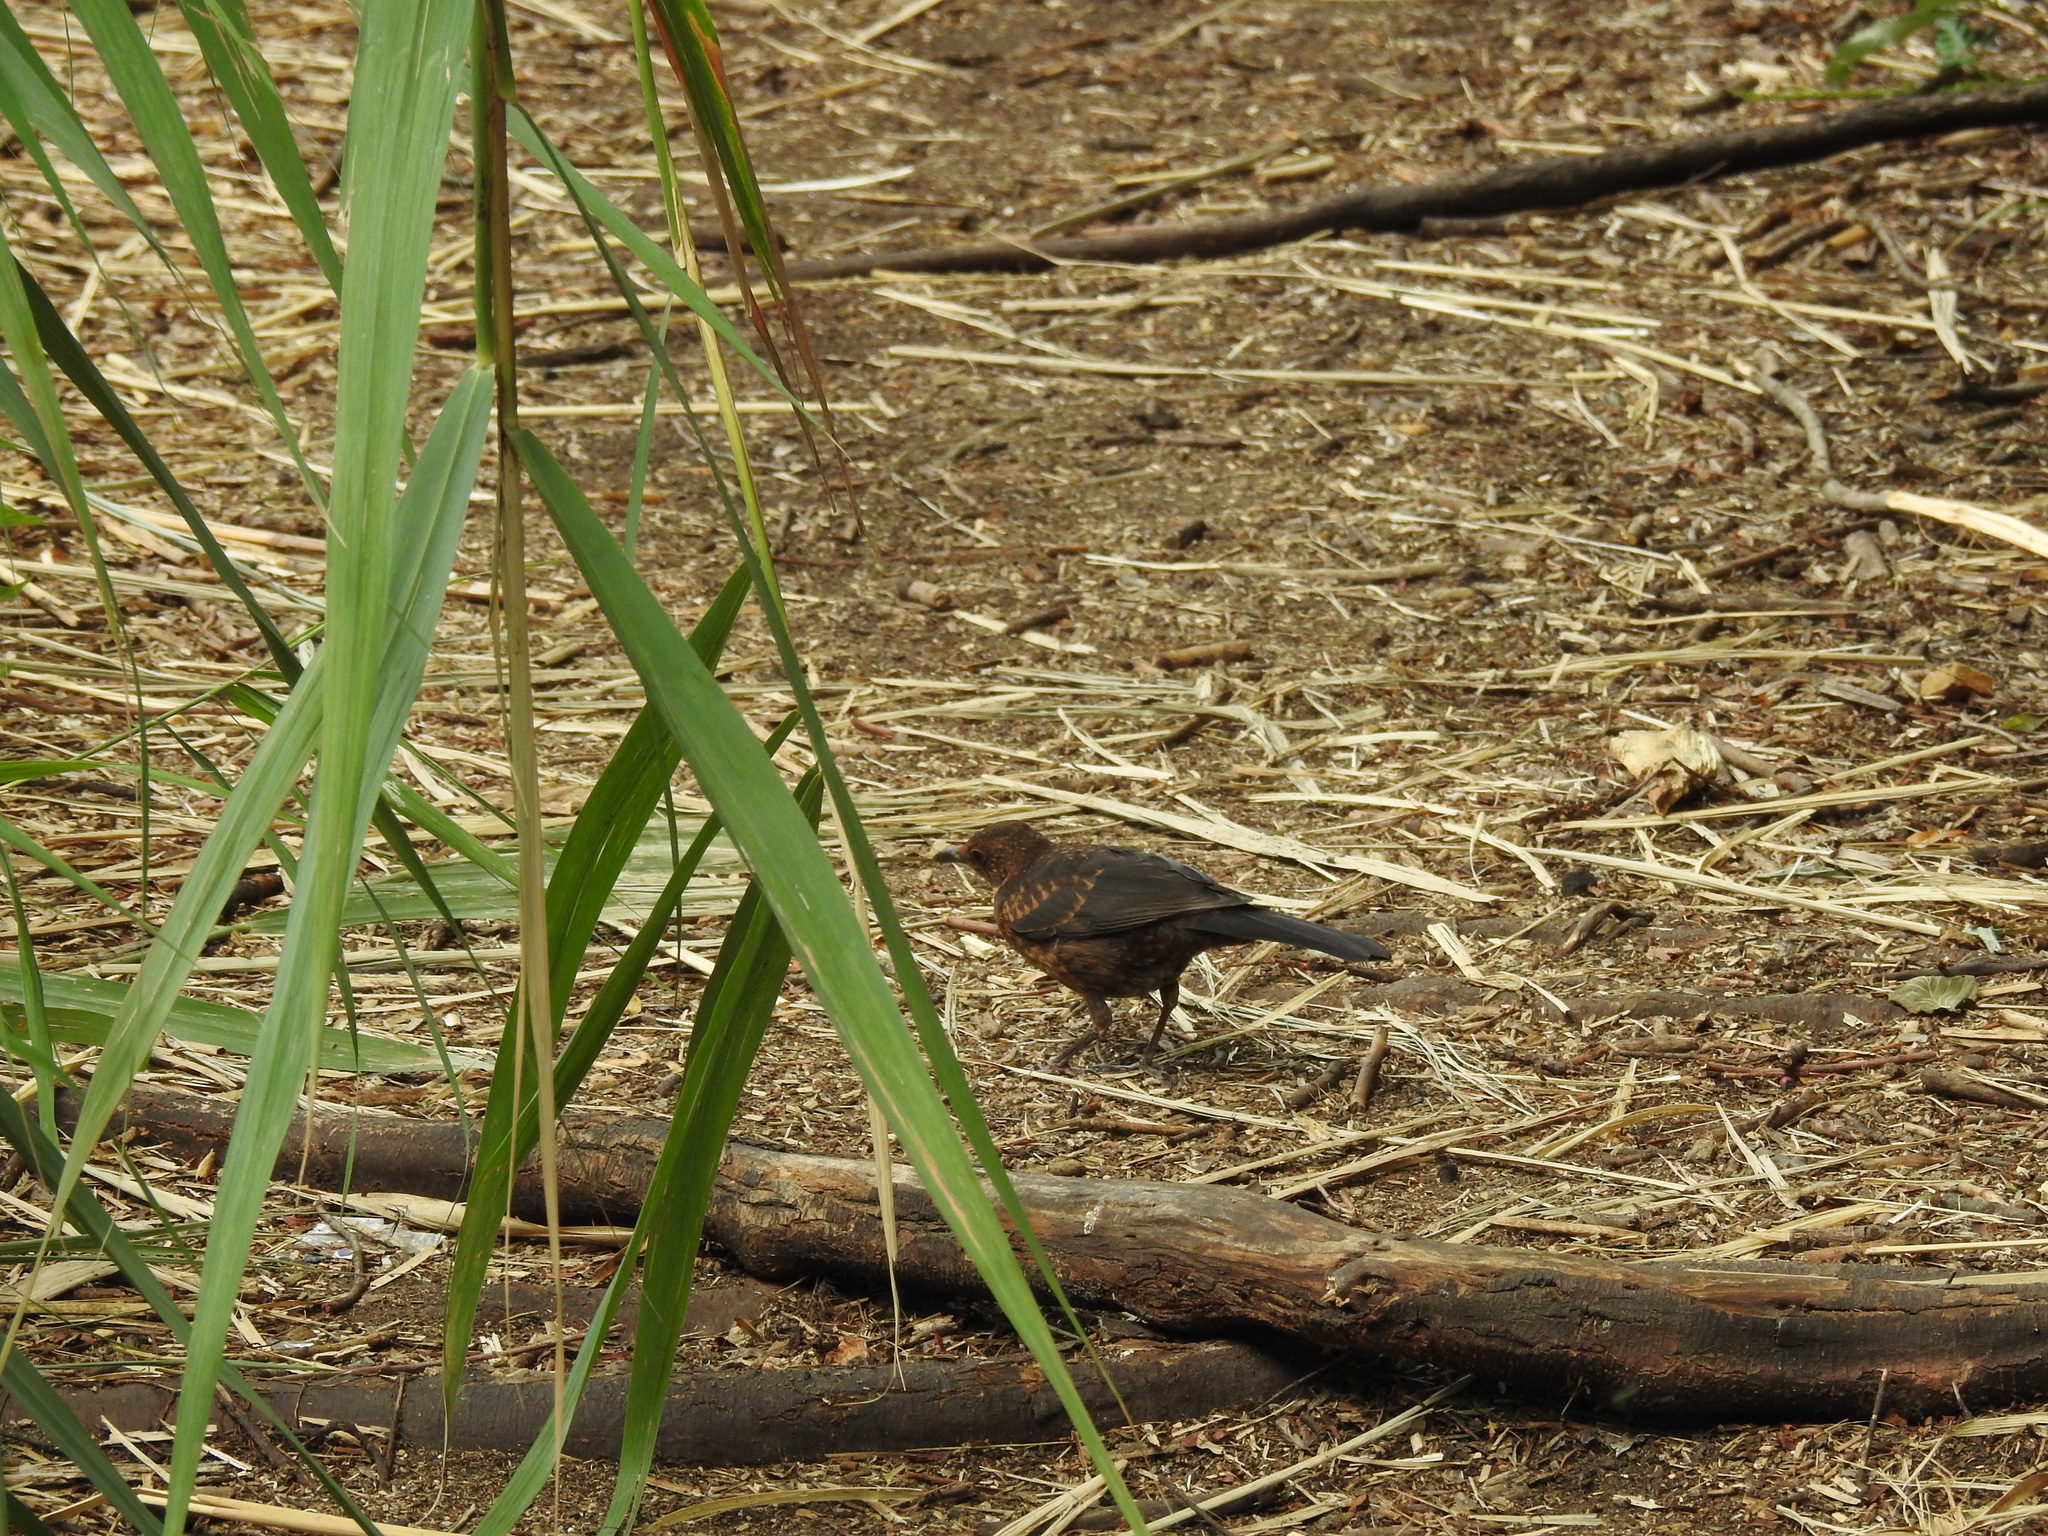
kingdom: Animalia
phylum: Chordata
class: Aves
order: Passeriformes
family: Turdidae
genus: Turdus
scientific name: Turdus merula
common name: Common blackbird
